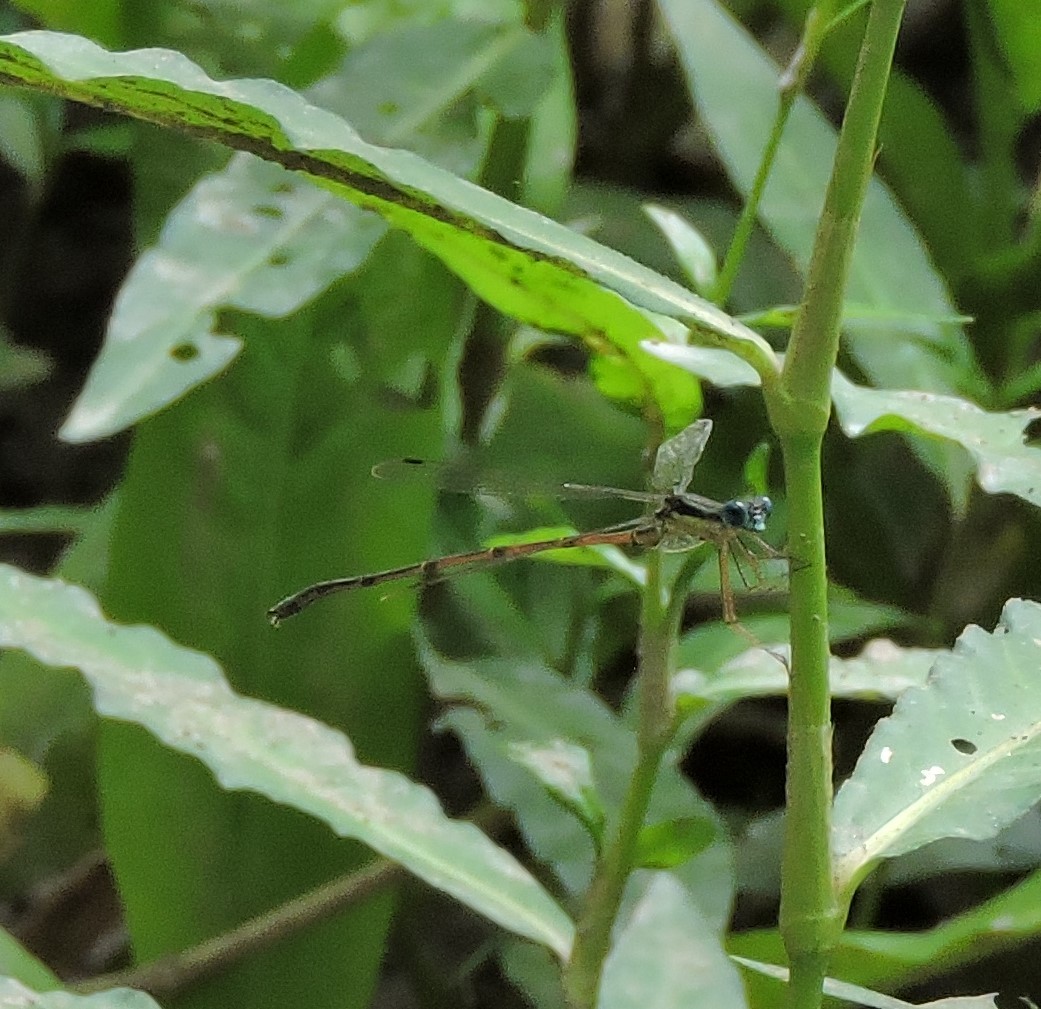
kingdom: Animalia
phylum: Arthropoda
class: Insecta
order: Odonata
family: Lestidae
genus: Lestes
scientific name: Lestes rectangularis
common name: Slender spreadwing
